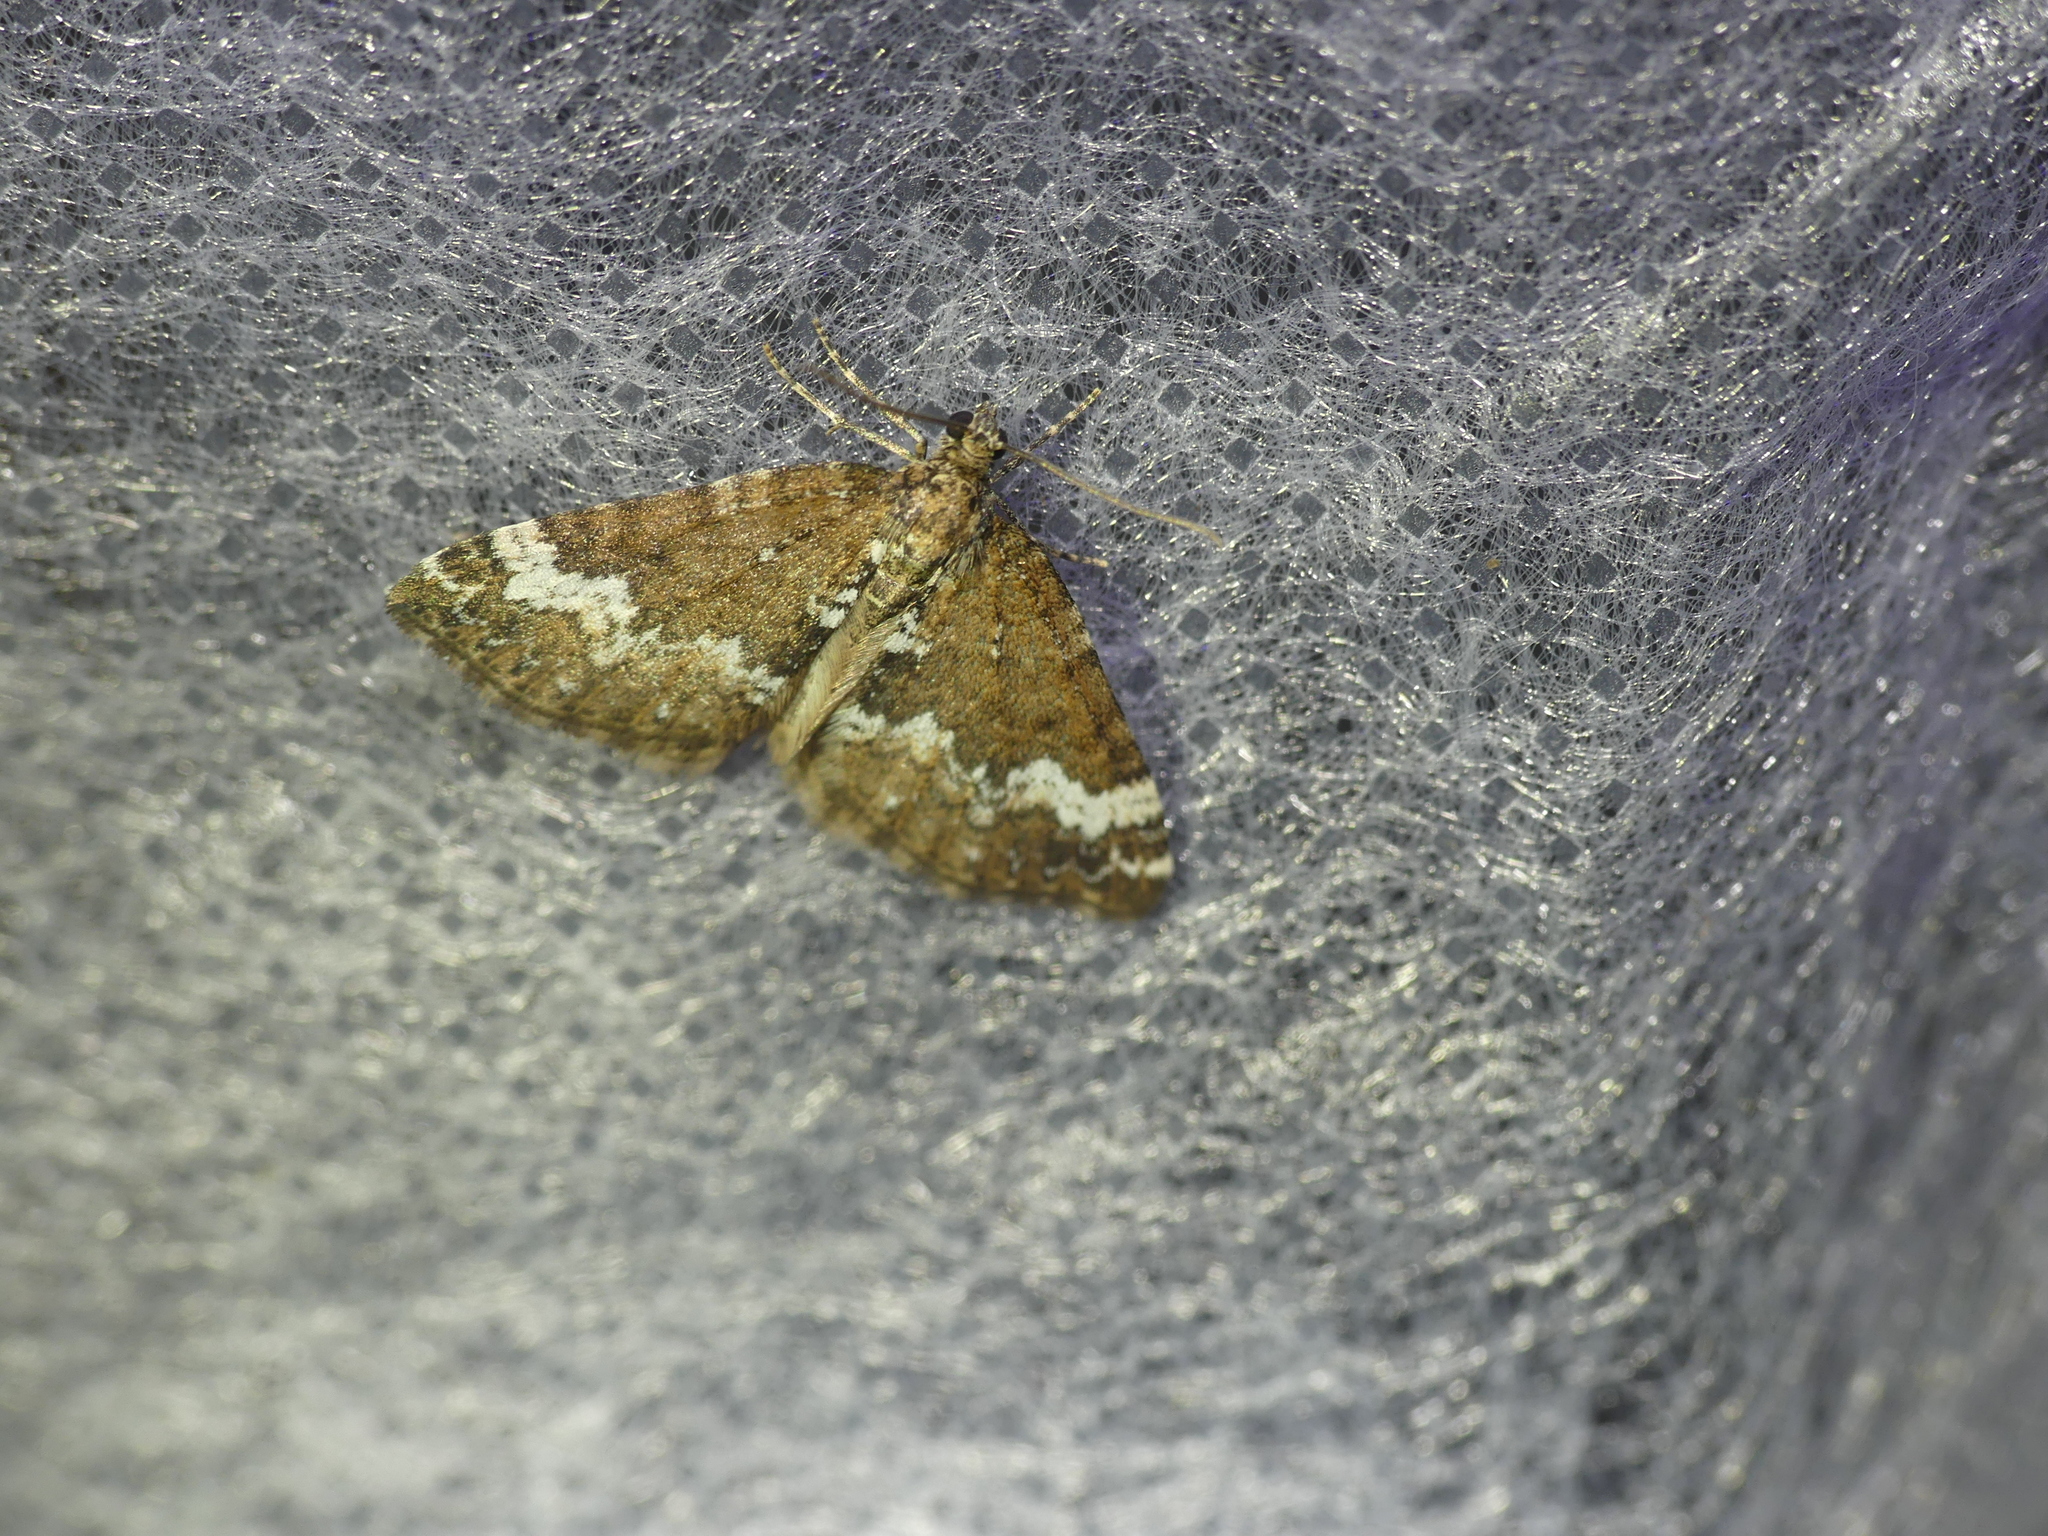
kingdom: Animalia
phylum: Arthropoda
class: Insecta
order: Lepidoptera
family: Geometridae
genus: Perizoma
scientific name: Perizoma alchemillata
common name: Small rivulet
